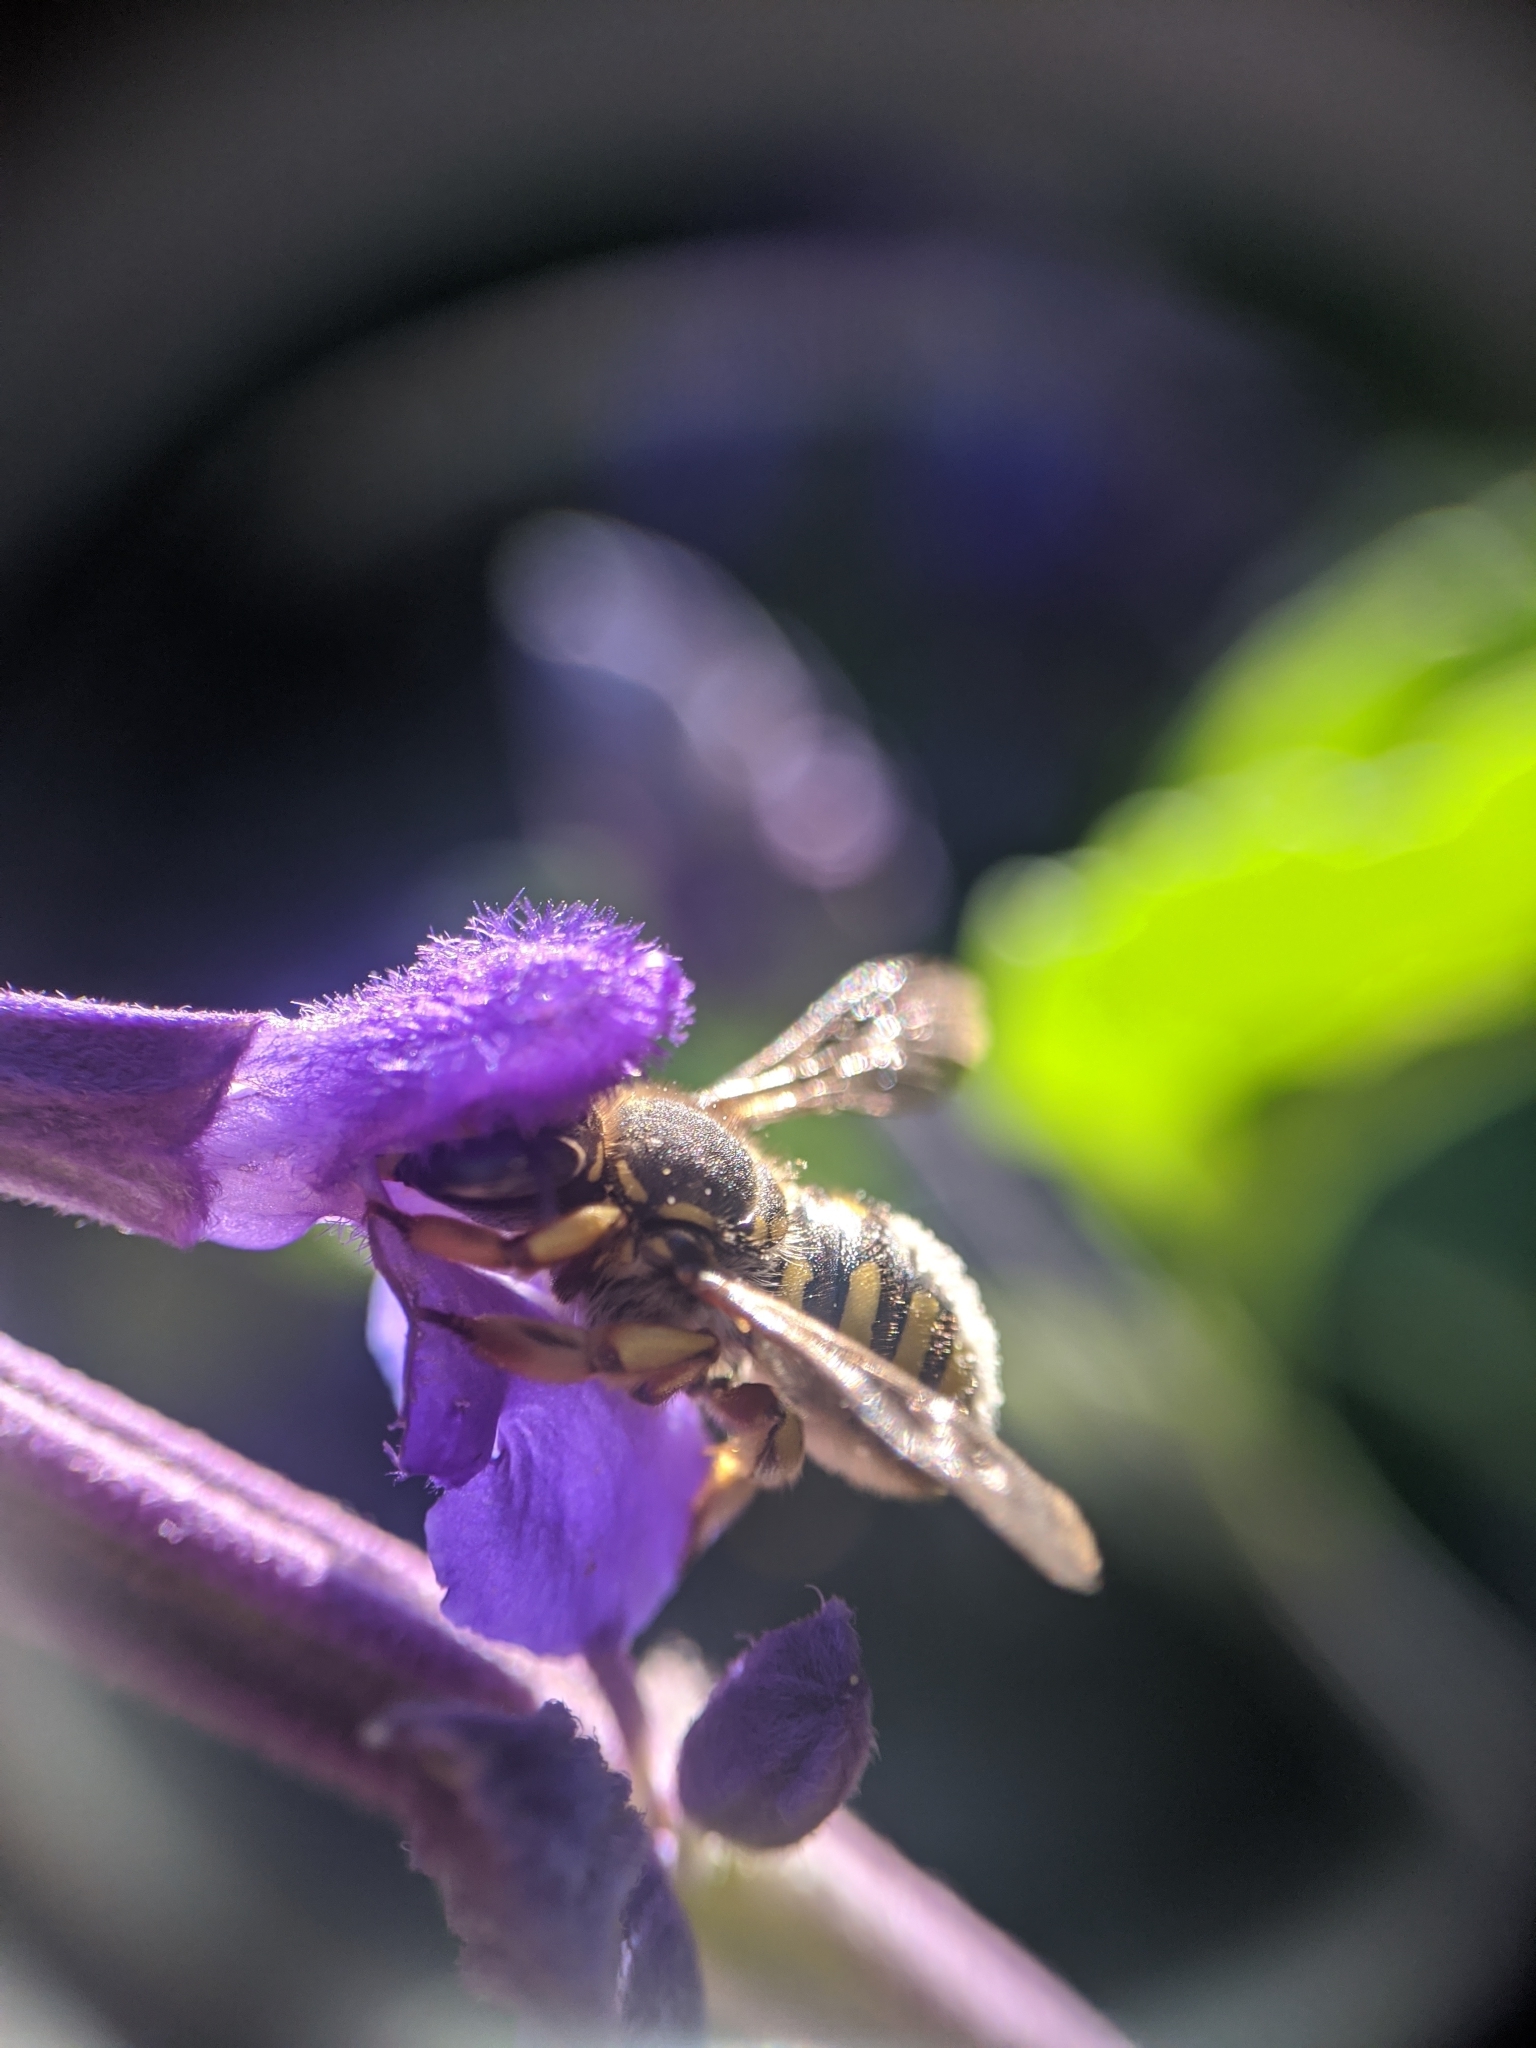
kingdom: Animalia
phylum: Arthropoda
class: Insecta
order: Hymenoptera
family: Megachilidae
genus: Anthidium
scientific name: Anthidium manicatum
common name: Wool carder bee
